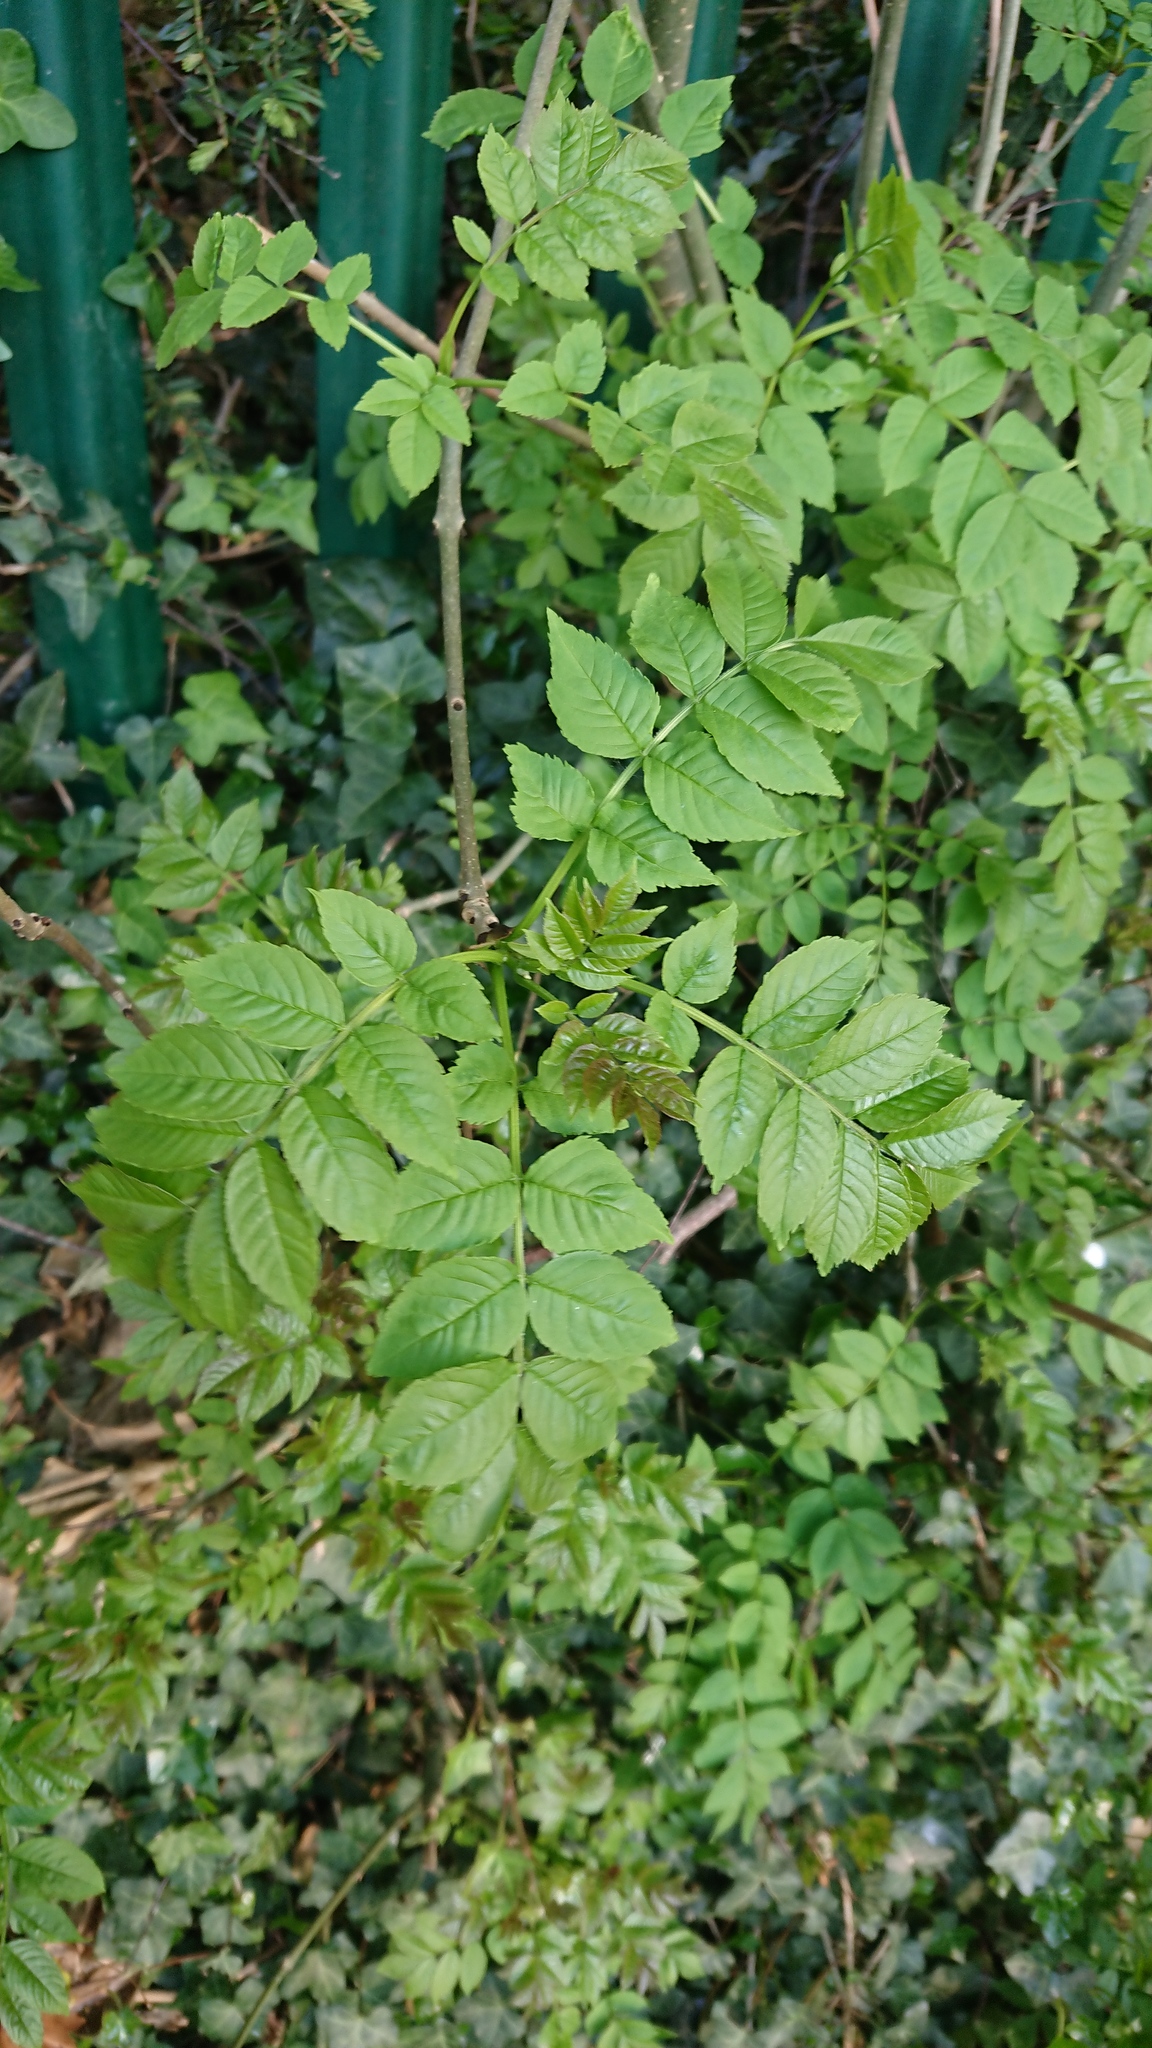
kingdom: Plantae
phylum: Tracheophyta
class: Magnoliopsida
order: Lamiales
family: Oleaceae
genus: Fraxinus
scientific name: Fraxinus excelsior
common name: European ash
